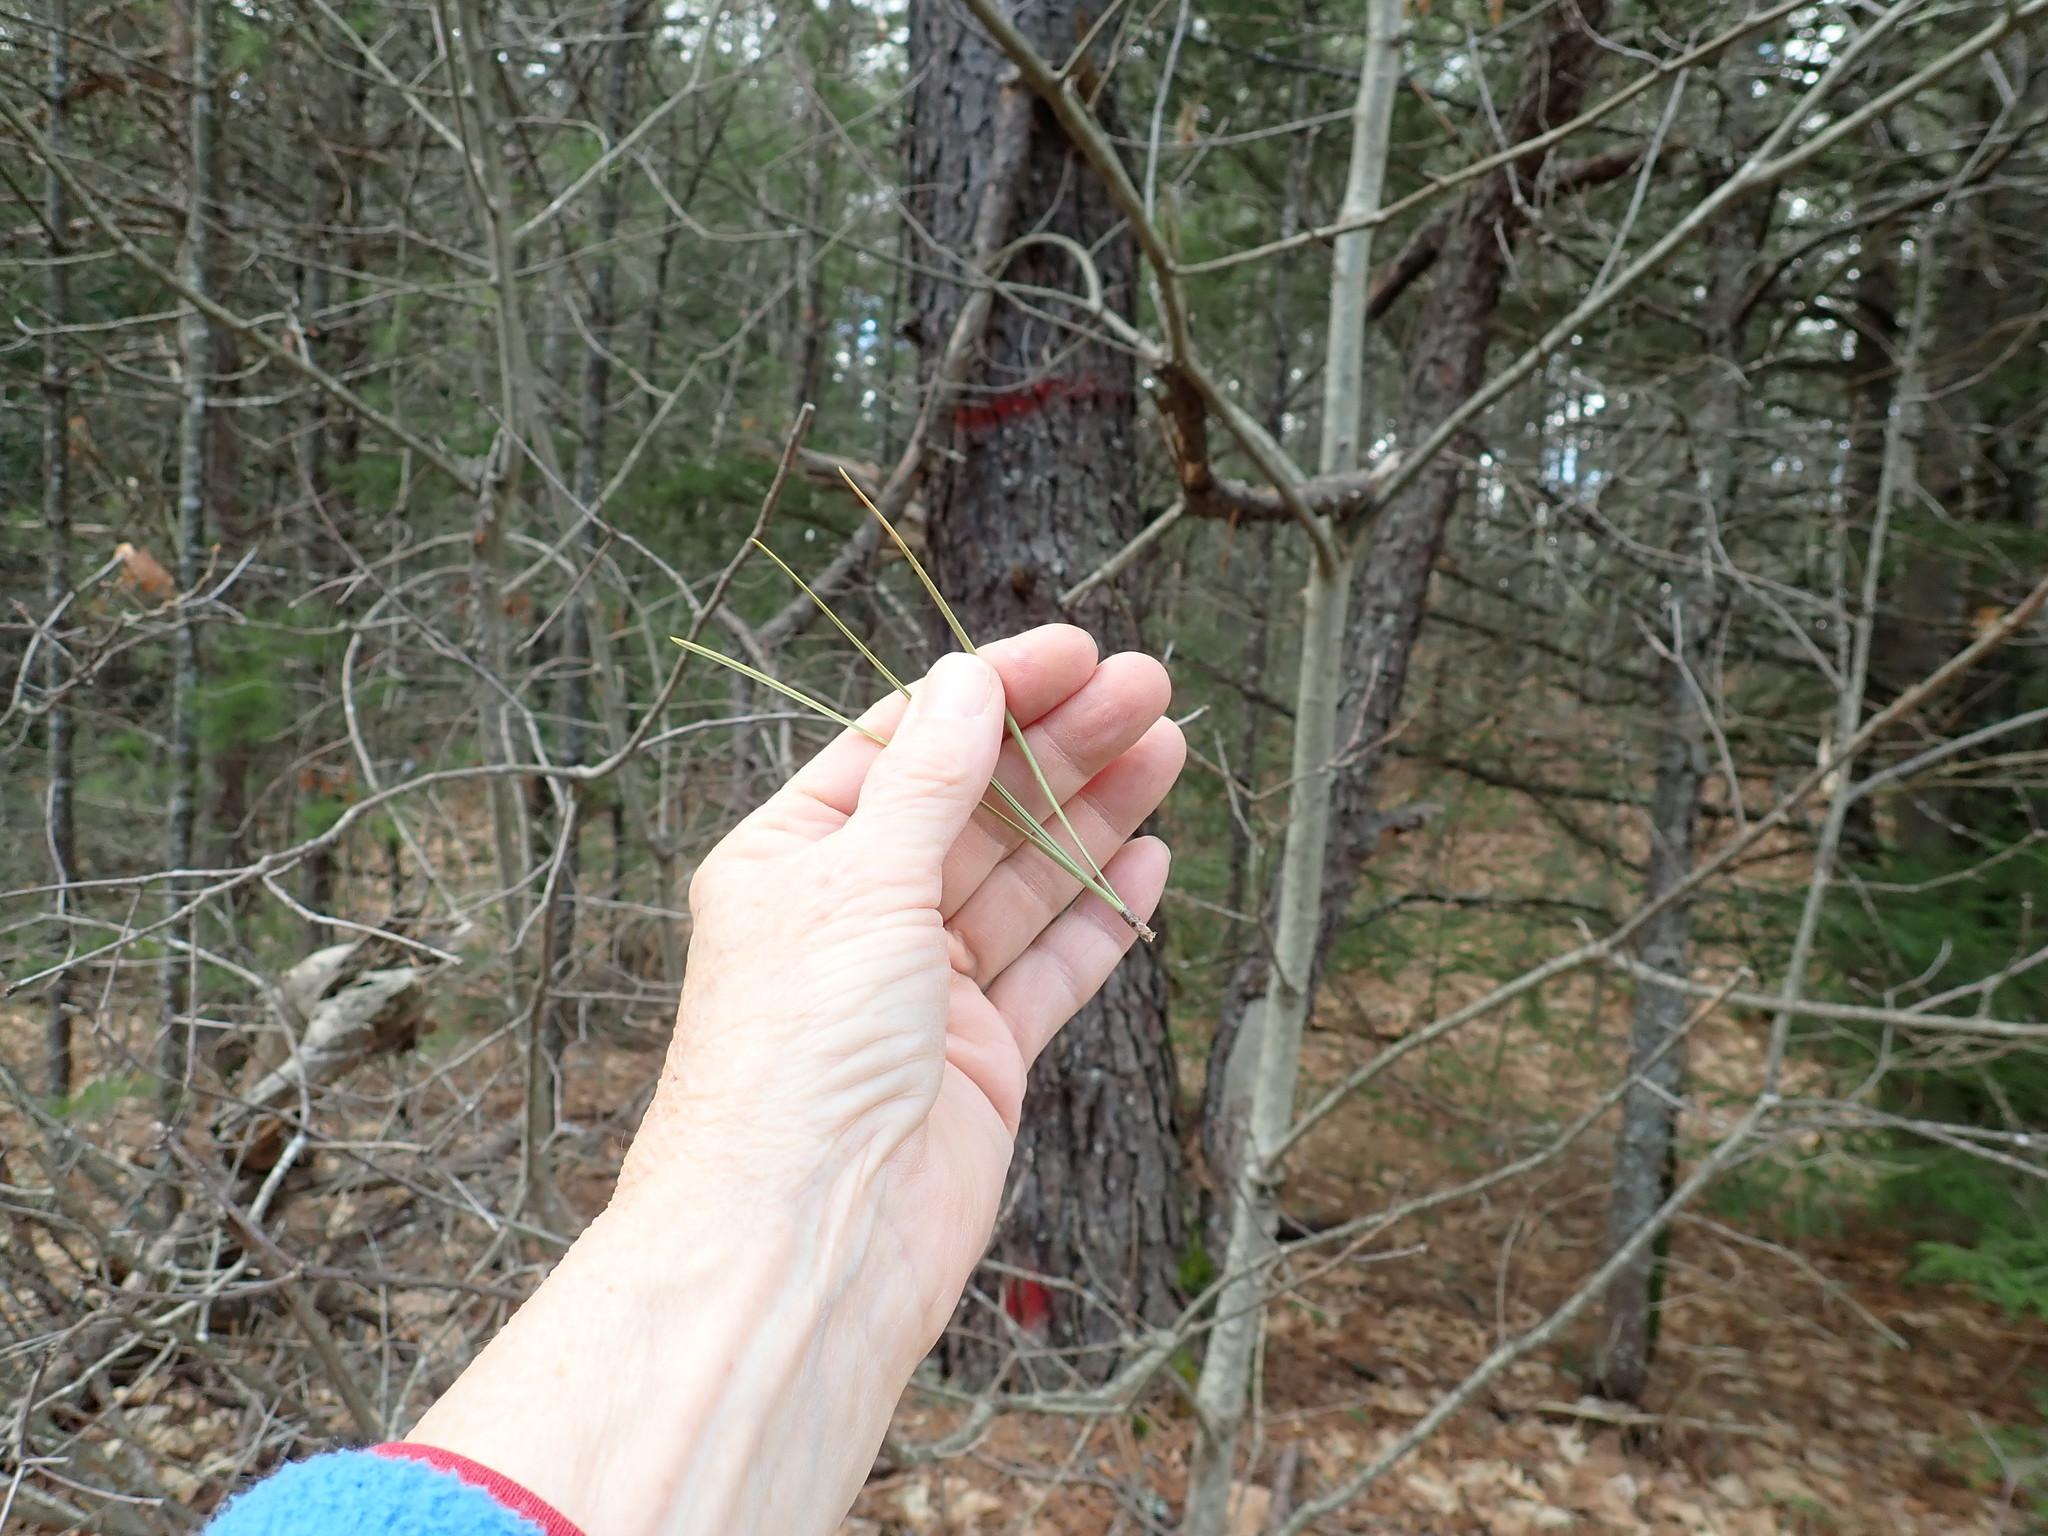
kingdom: Plantae
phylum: Tracheophyta
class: Pinopsida
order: Pinales
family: Pinaceae
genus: Pinus
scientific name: Pinus rigida
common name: Pitch pine
